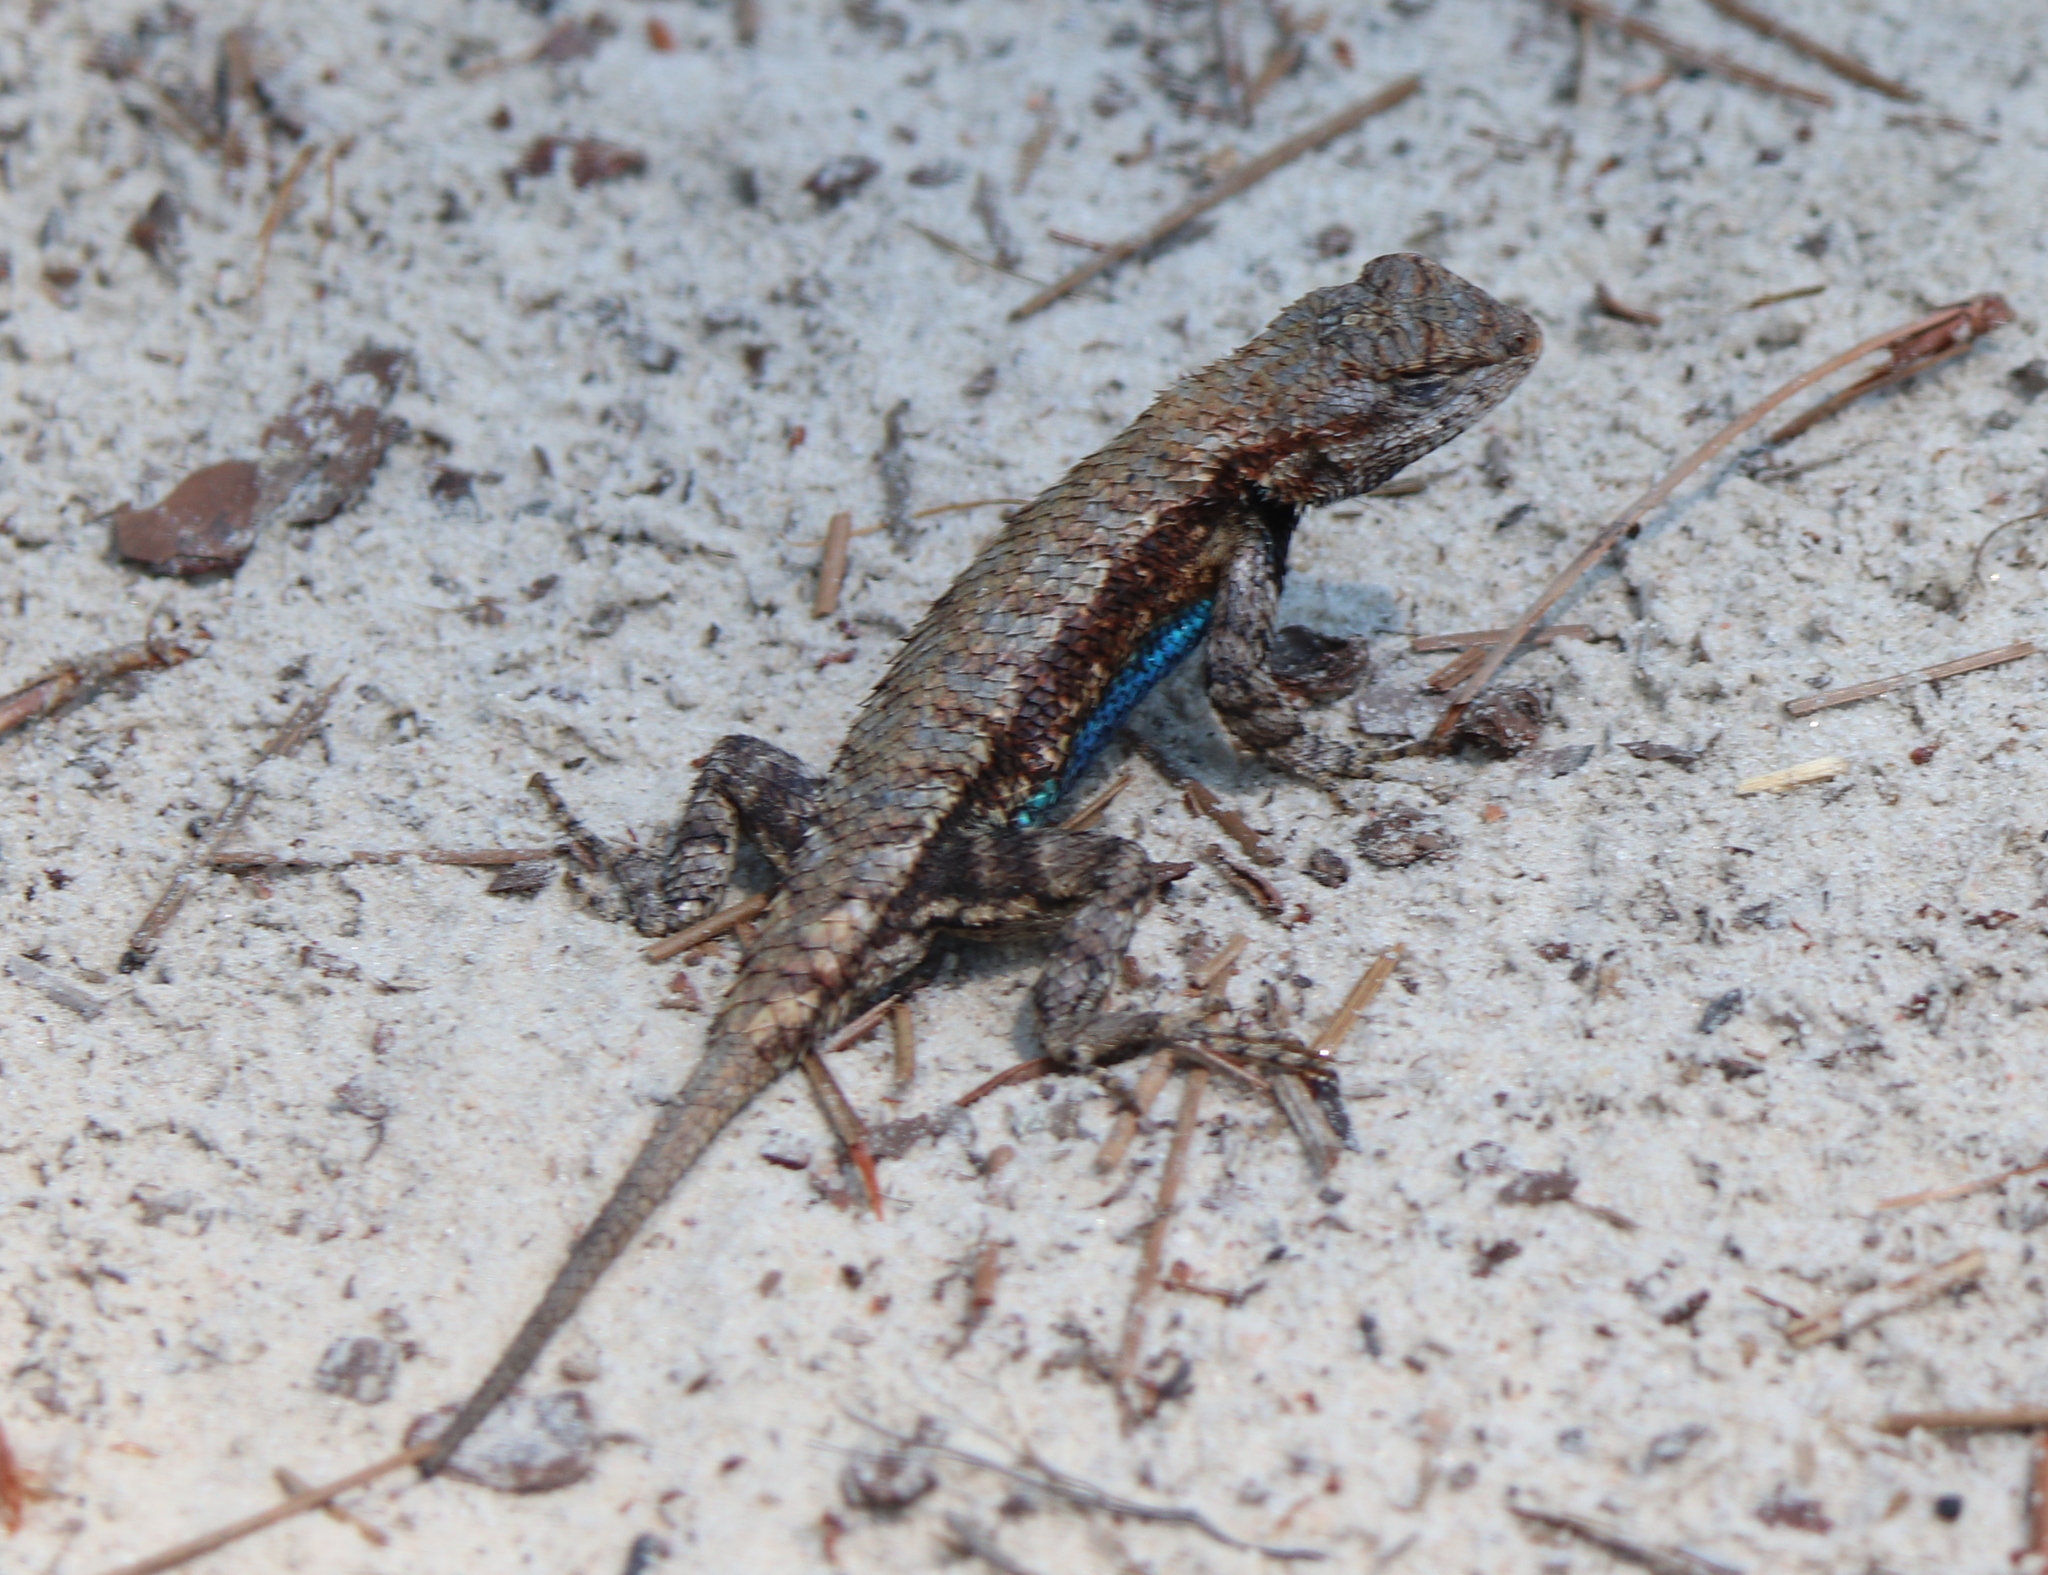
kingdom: Animalia
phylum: Chordata
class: Squamata
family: Phrynosomatidae
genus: Sceloporus
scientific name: Sceloporus undulatus
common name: Eastern fence lizard
